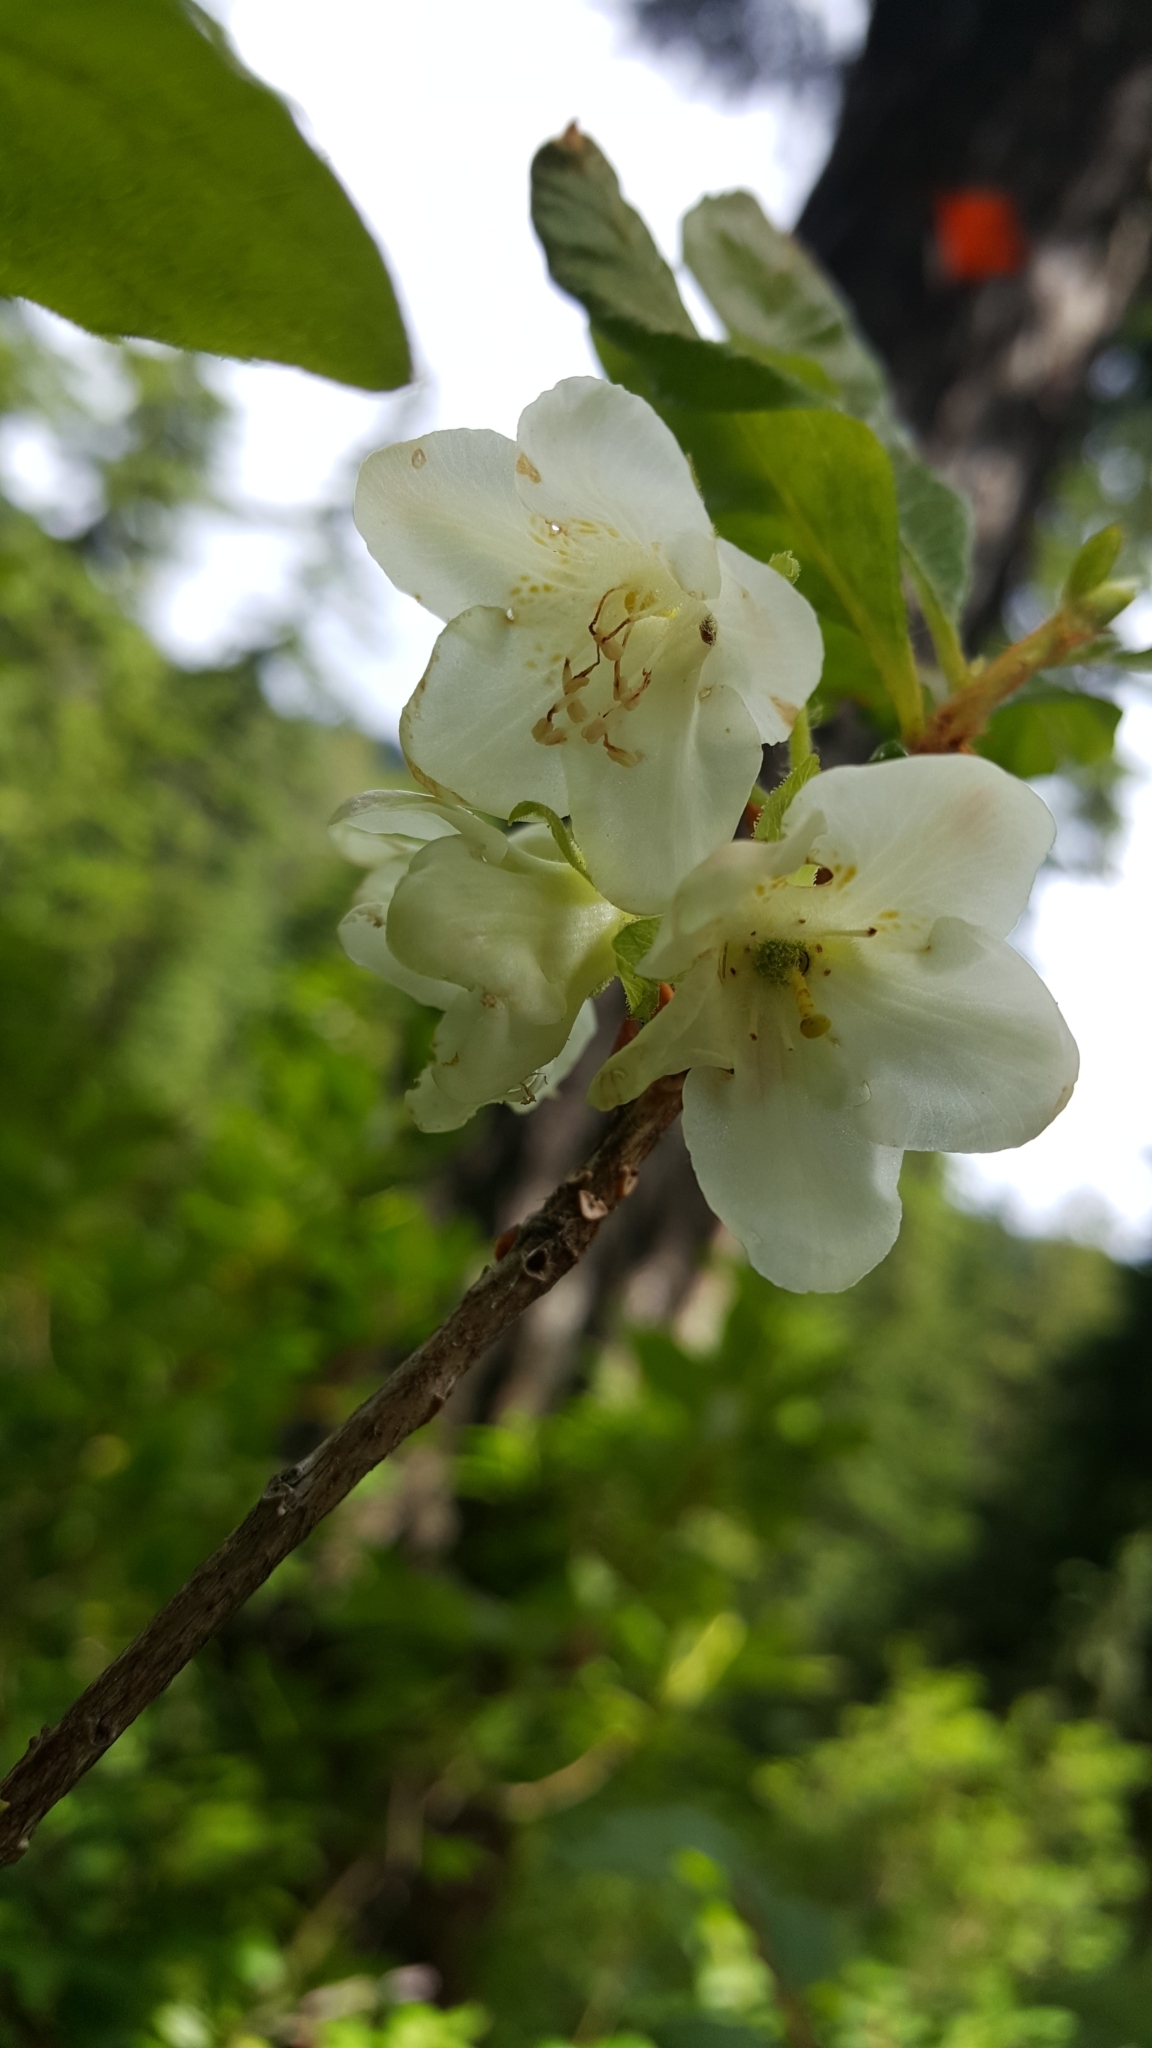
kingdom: Plantae
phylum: Tracheophyta
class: Magnoliopsida
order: Ericales
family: Ericaceae
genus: Rhododendron
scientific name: Rhododendron albiflorum
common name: White rhododendron
